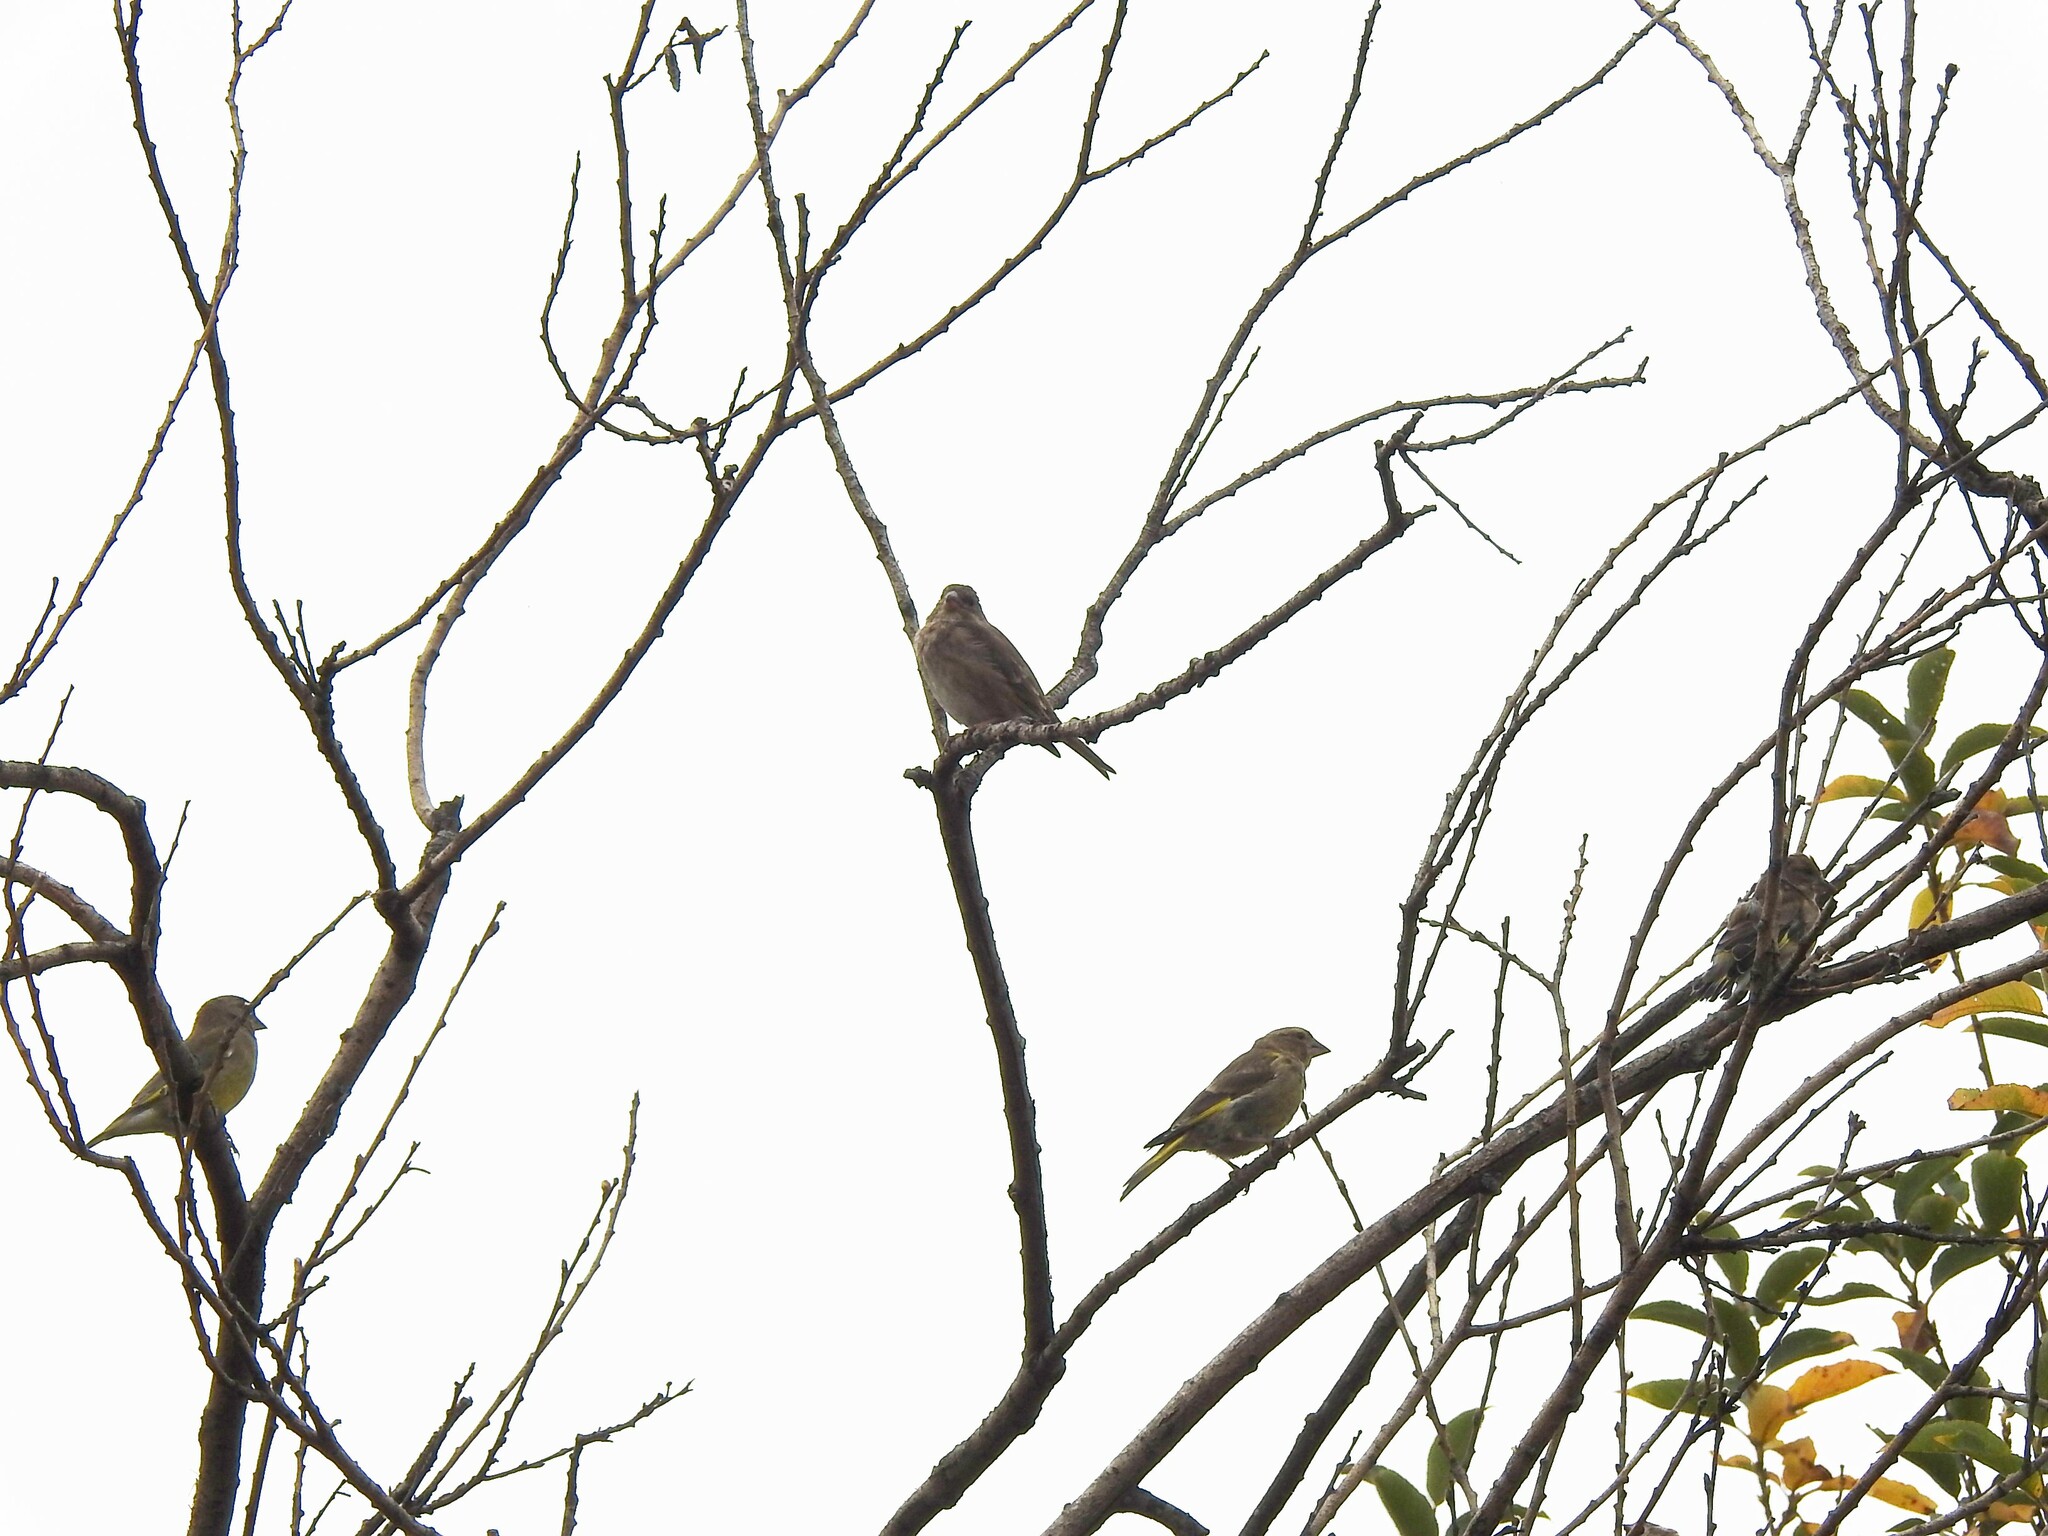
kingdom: Plantae
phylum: Tracheophyta
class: Liliopsida
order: Poales
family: Poaceae
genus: Chloris
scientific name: Chloris chloris
